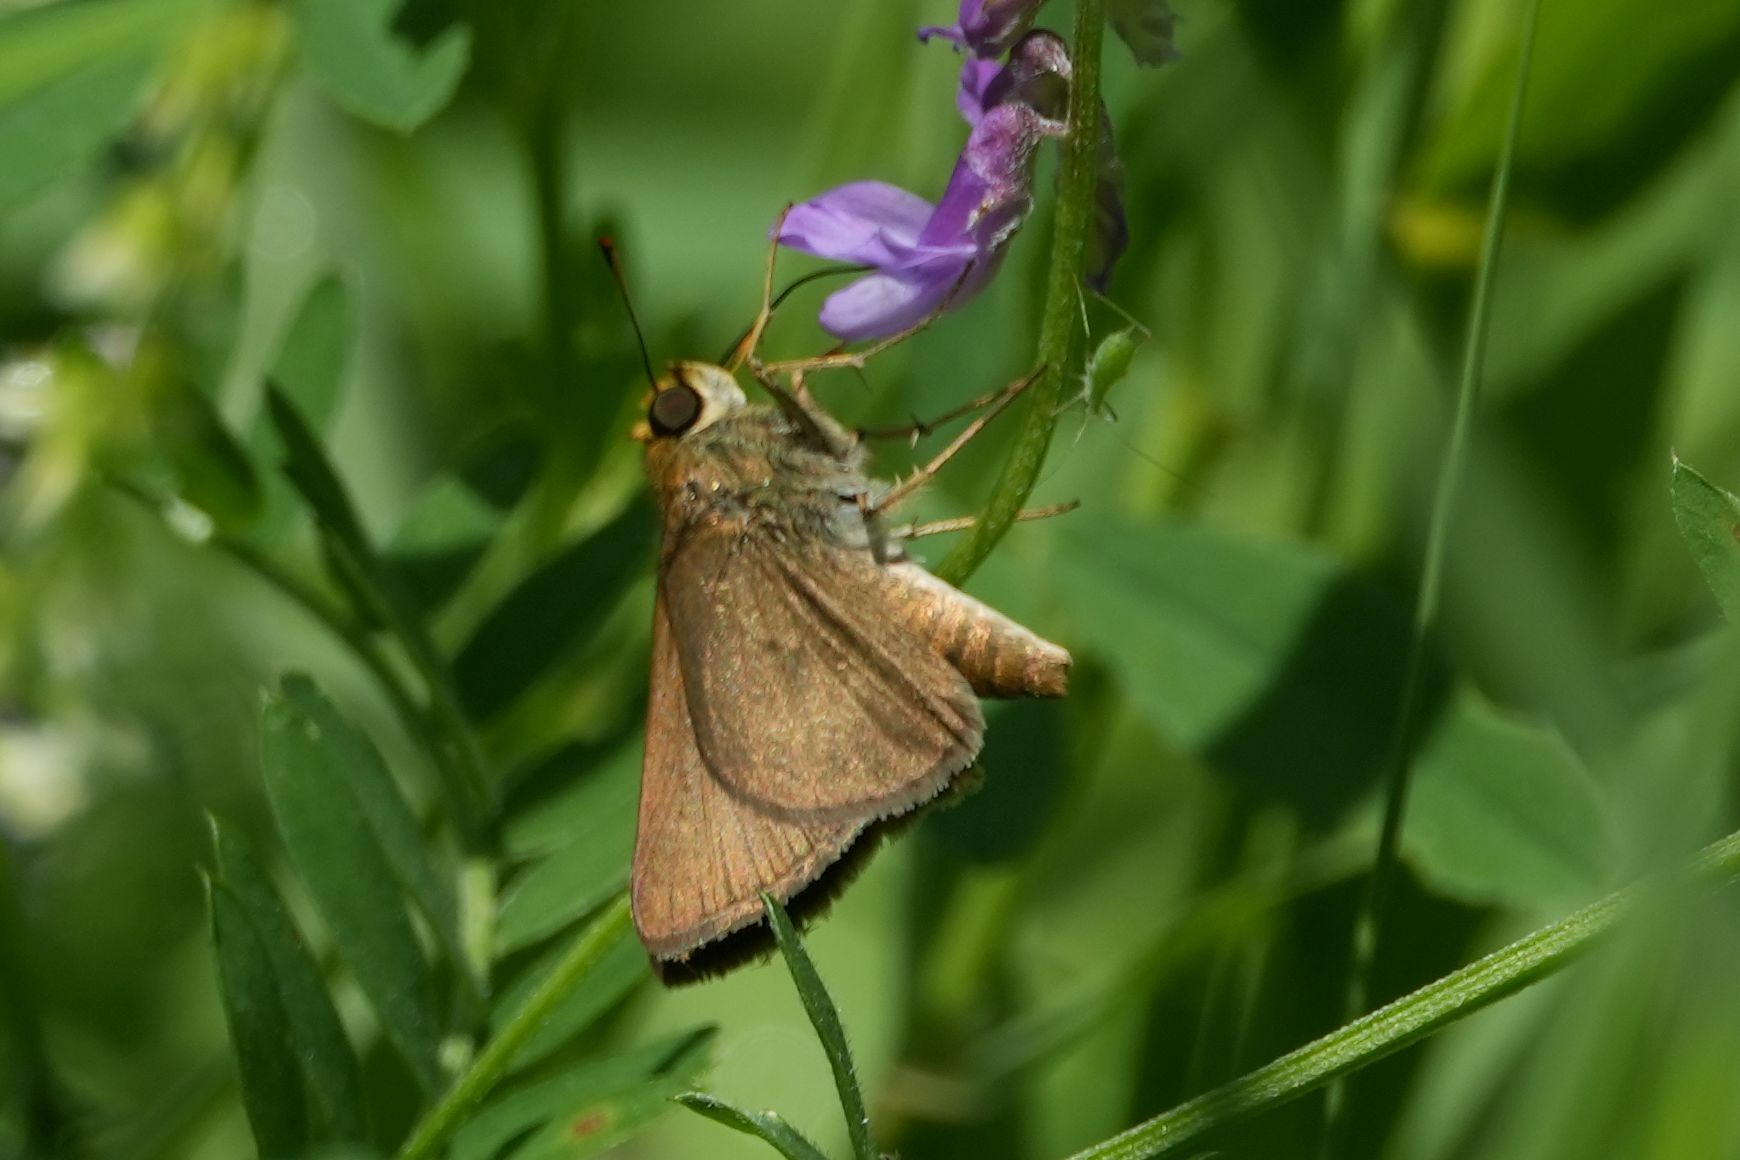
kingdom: Animalia
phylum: Arthropoda
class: Insecta
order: Lepidoptera
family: Hesperiidae
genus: Euphyes
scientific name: Euphyes vestris
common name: Dun skipper
